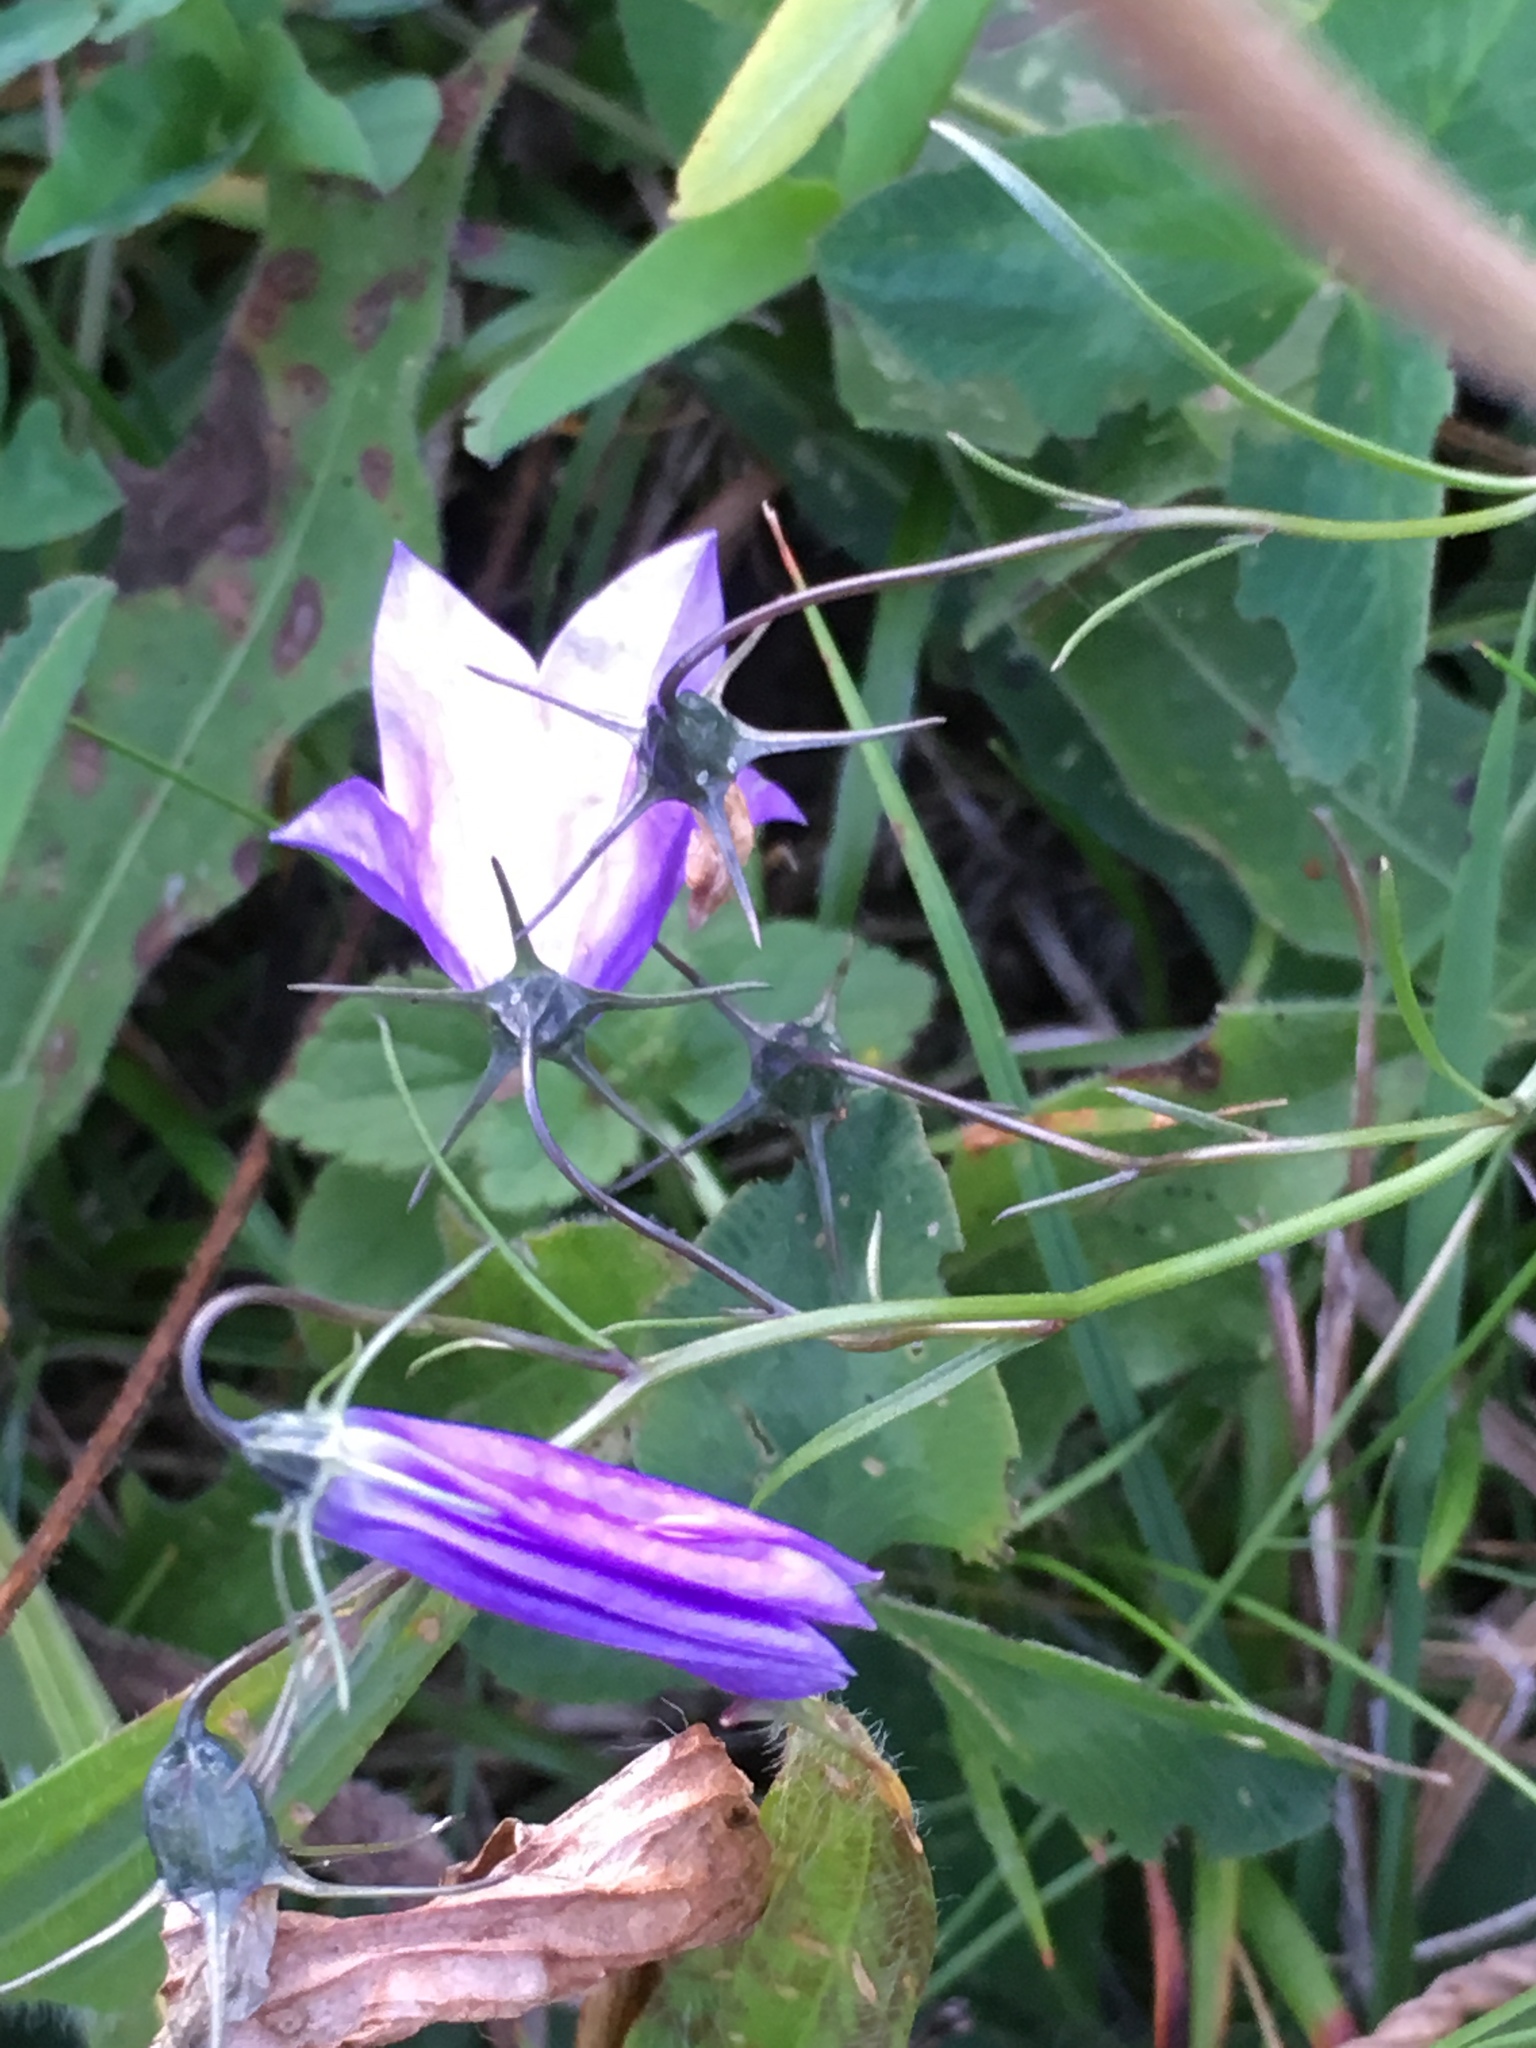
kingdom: Plantae
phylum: Tracheophyta
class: Magnoliopsida
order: Asterales
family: Campanulaceae
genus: Campanula
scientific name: Campanula rotundifolia
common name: Harebell
